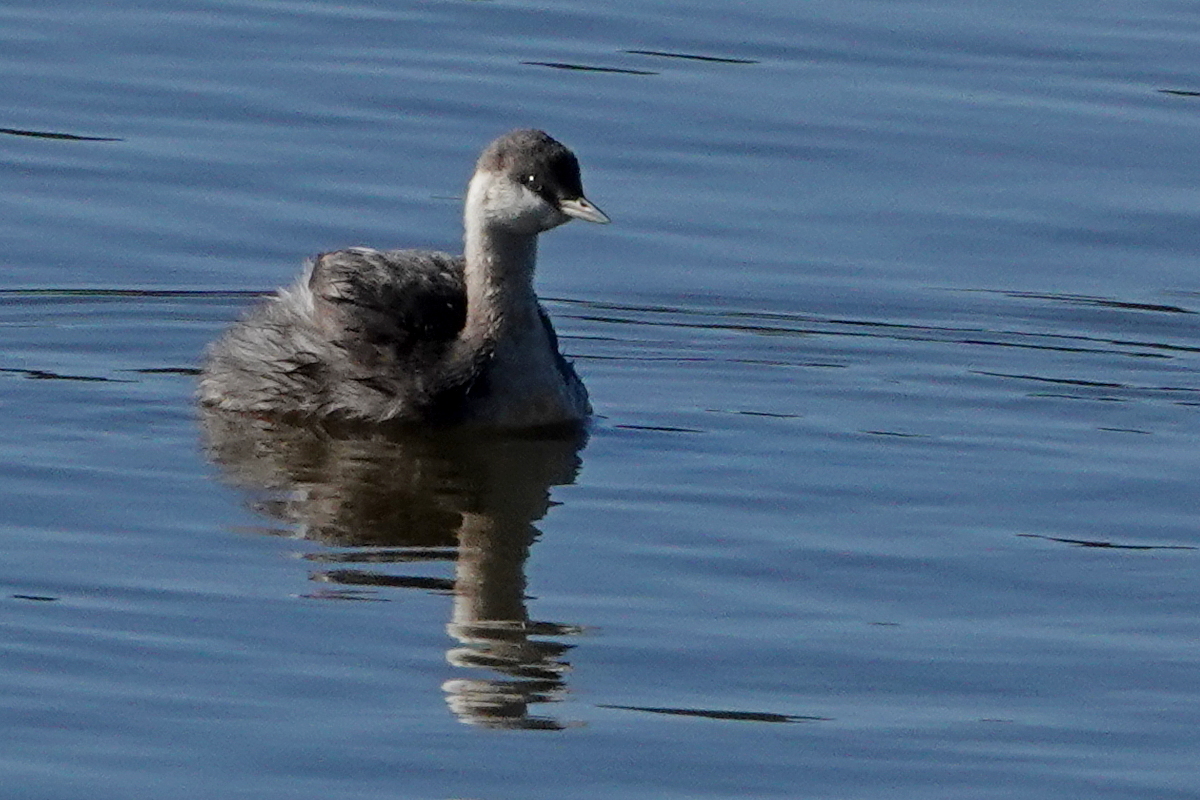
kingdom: Animalia
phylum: Chordata
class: Aves
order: Podicipediformes
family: Podicipedidae
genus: Poliocephalus
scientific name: Poliocephalus poliocephalus
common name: Hoary-headed grebe
